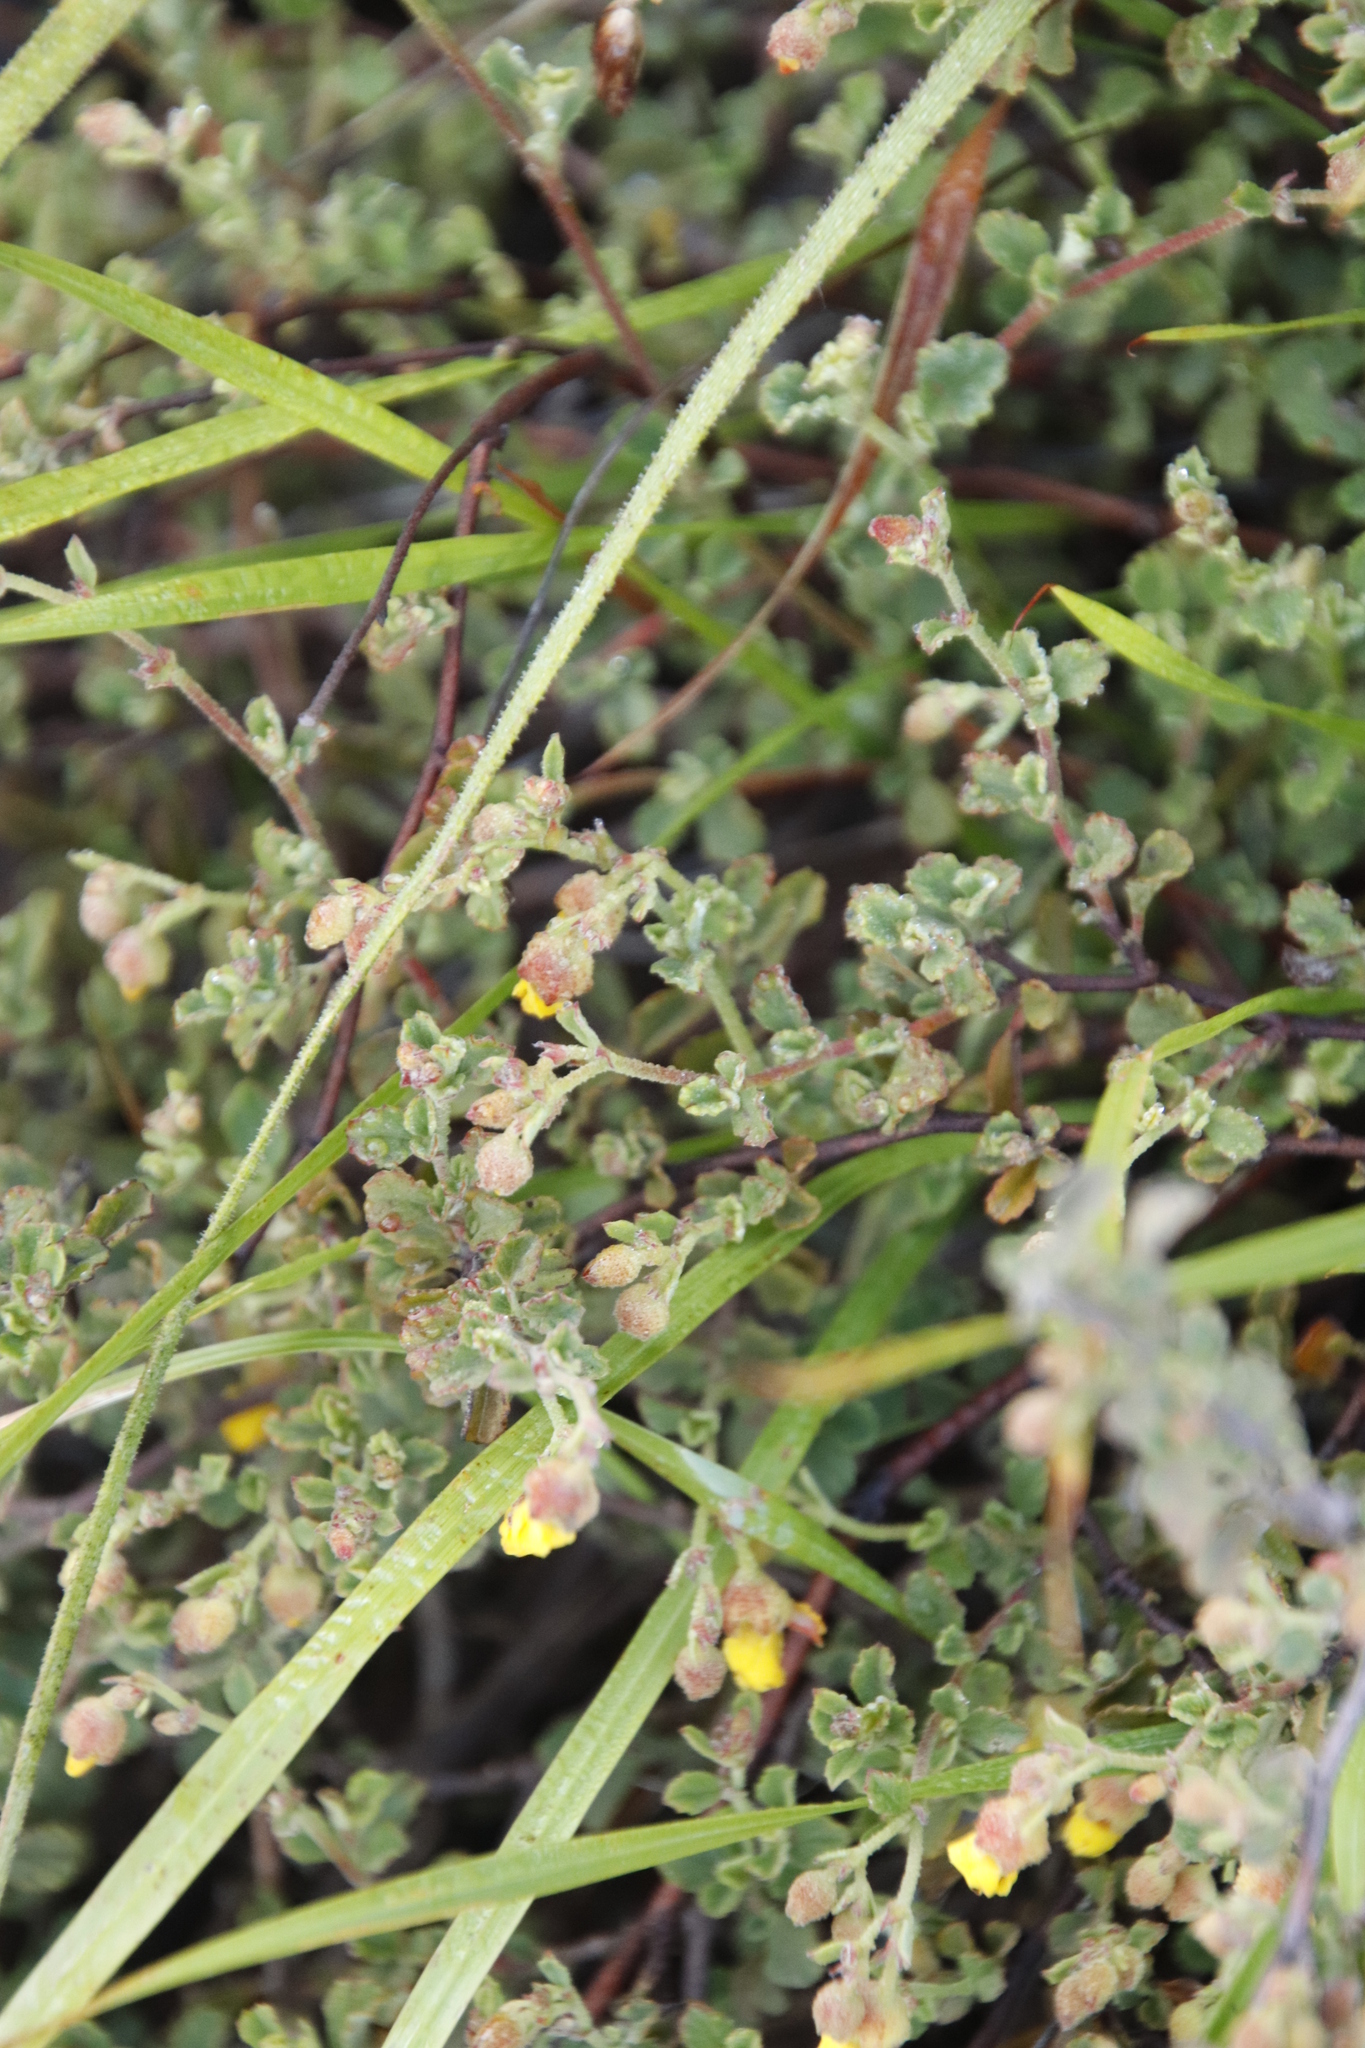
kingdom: Plantae
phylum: Tracheophyta
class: Magnoliopsida
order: Malvales
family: Malvaceae
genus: Hermannia
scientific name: Hermannia multiflora
